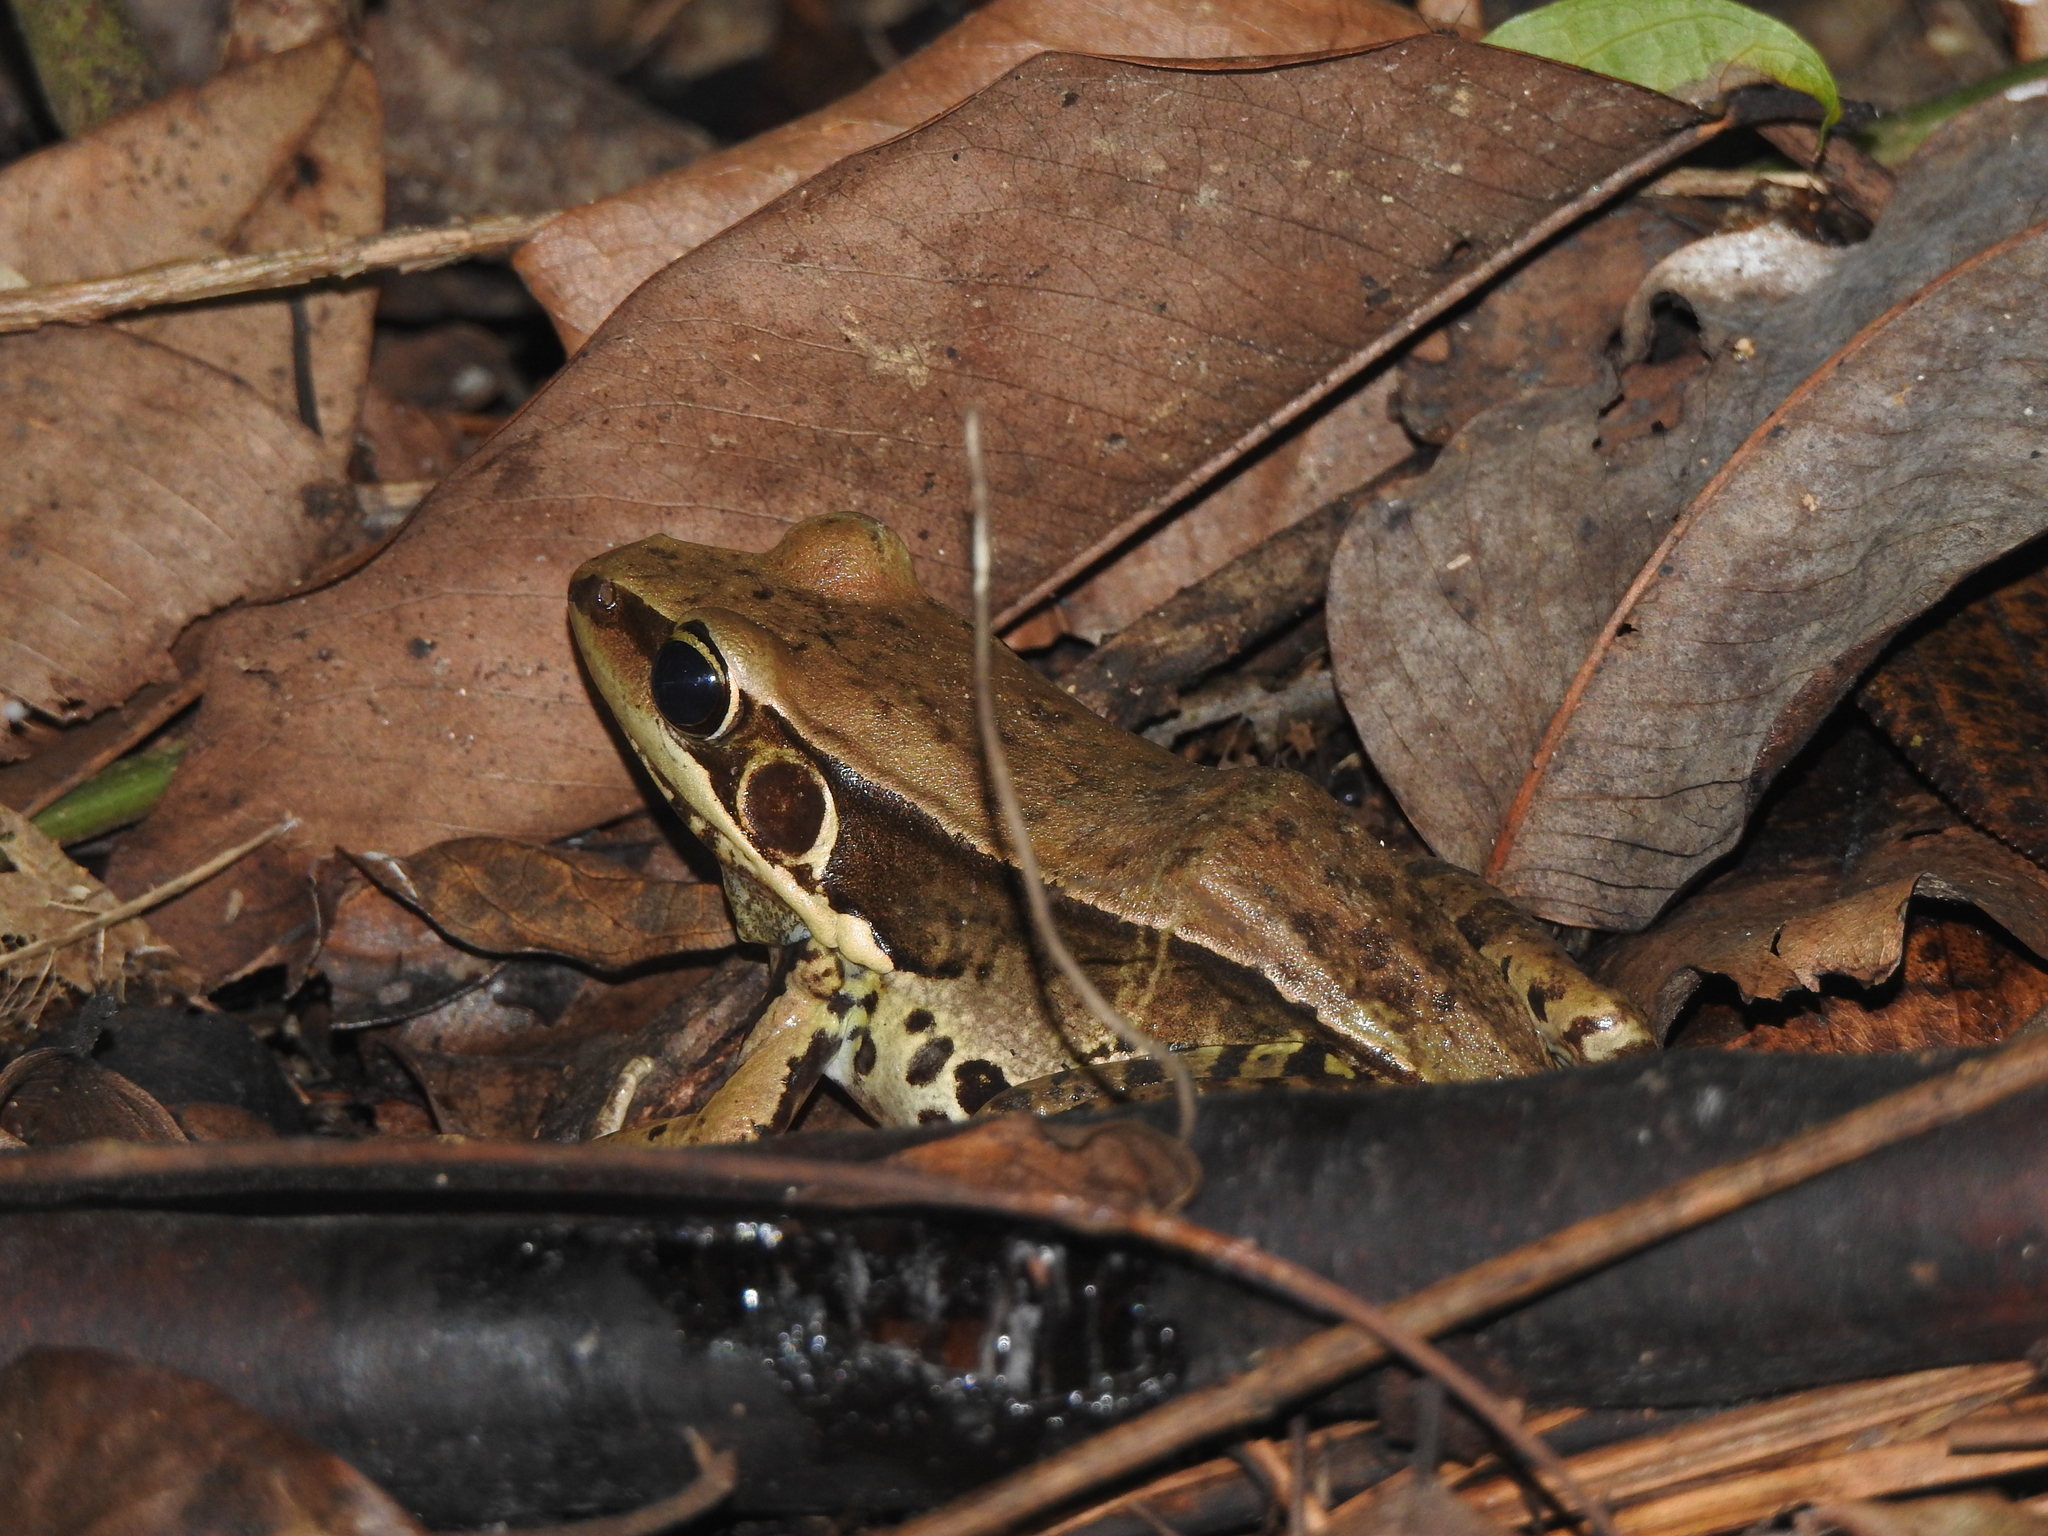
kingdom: Animalia
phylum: Chordata
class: Amphibia
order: Anura
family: Ranidae
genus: Sylvirana
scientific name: Sylvirana guentheri
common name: Guenther's amoy frog
